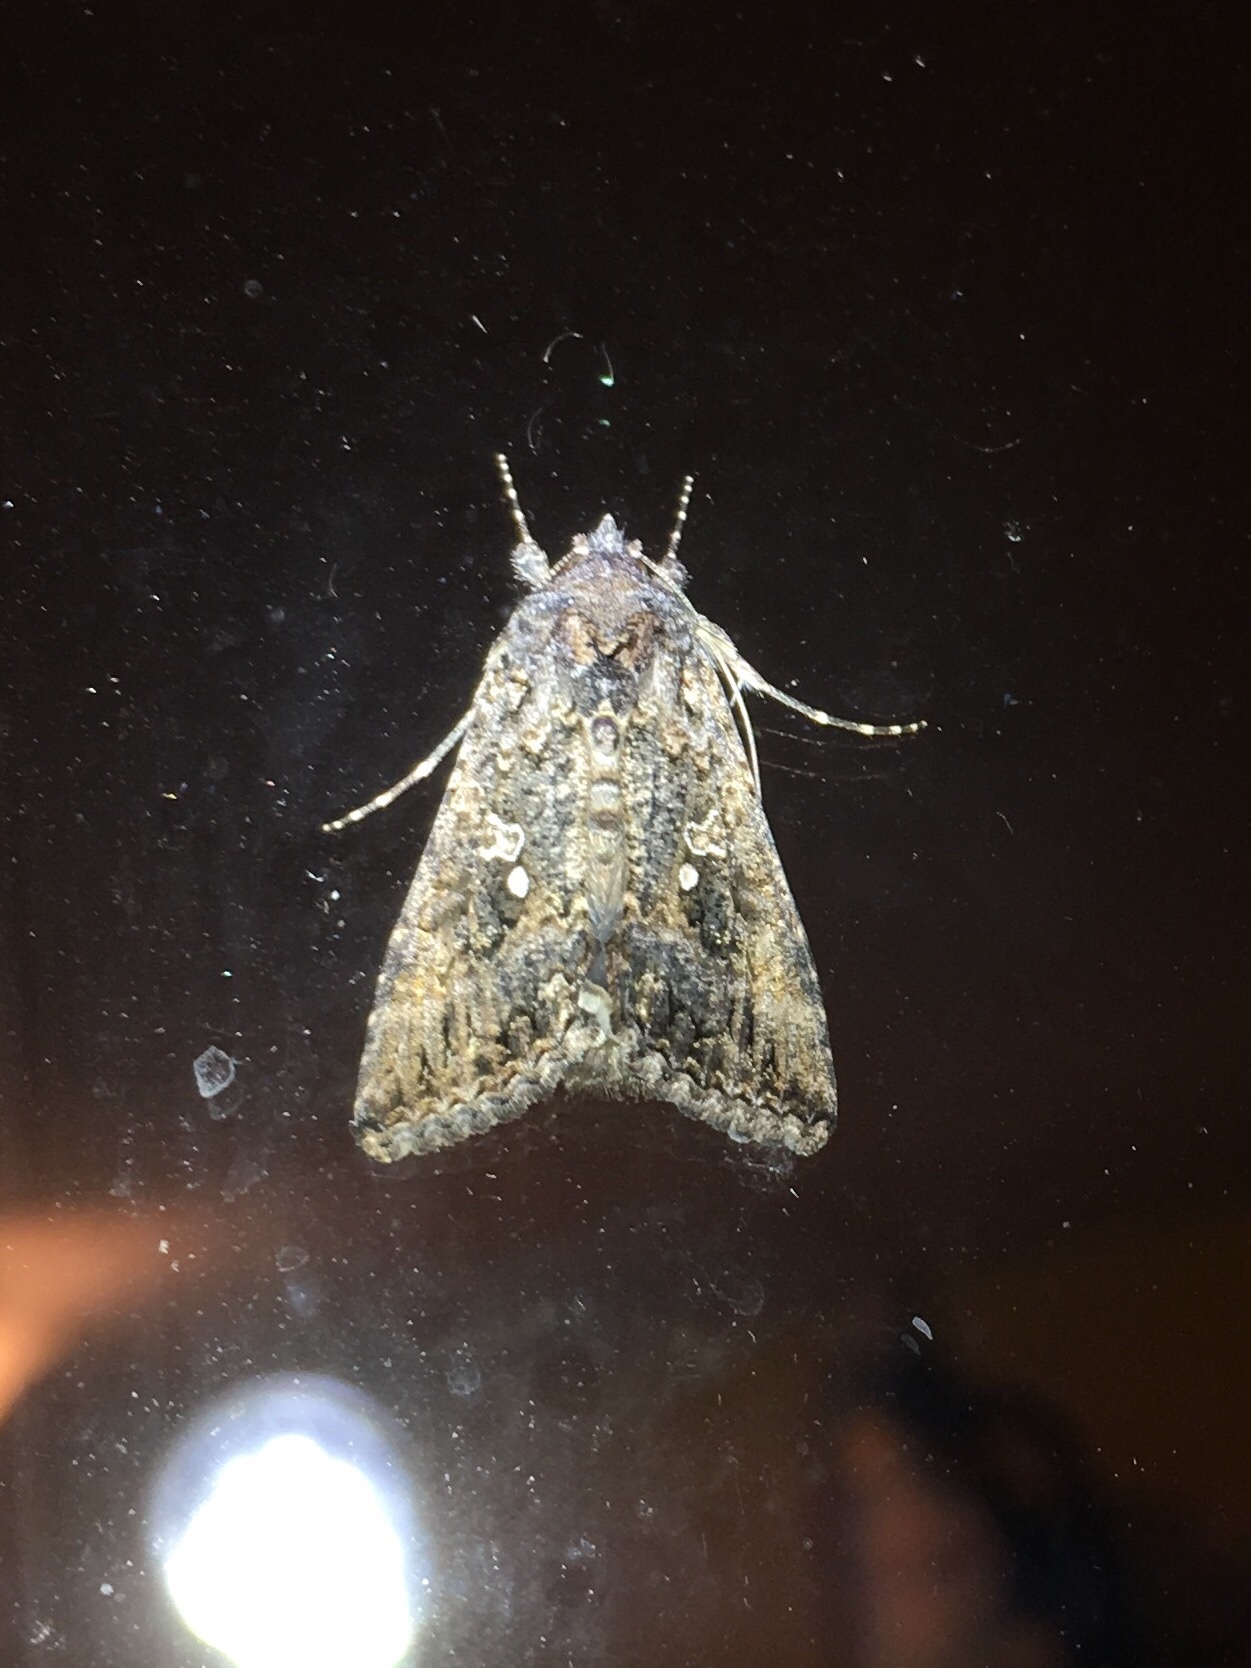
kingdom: Animalia
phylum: Arthropoda
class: Insecta
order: Lepidoptera
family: Noctuidae
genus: Trichoplusia
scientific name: Trichoplusia ni
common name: Ni moth
